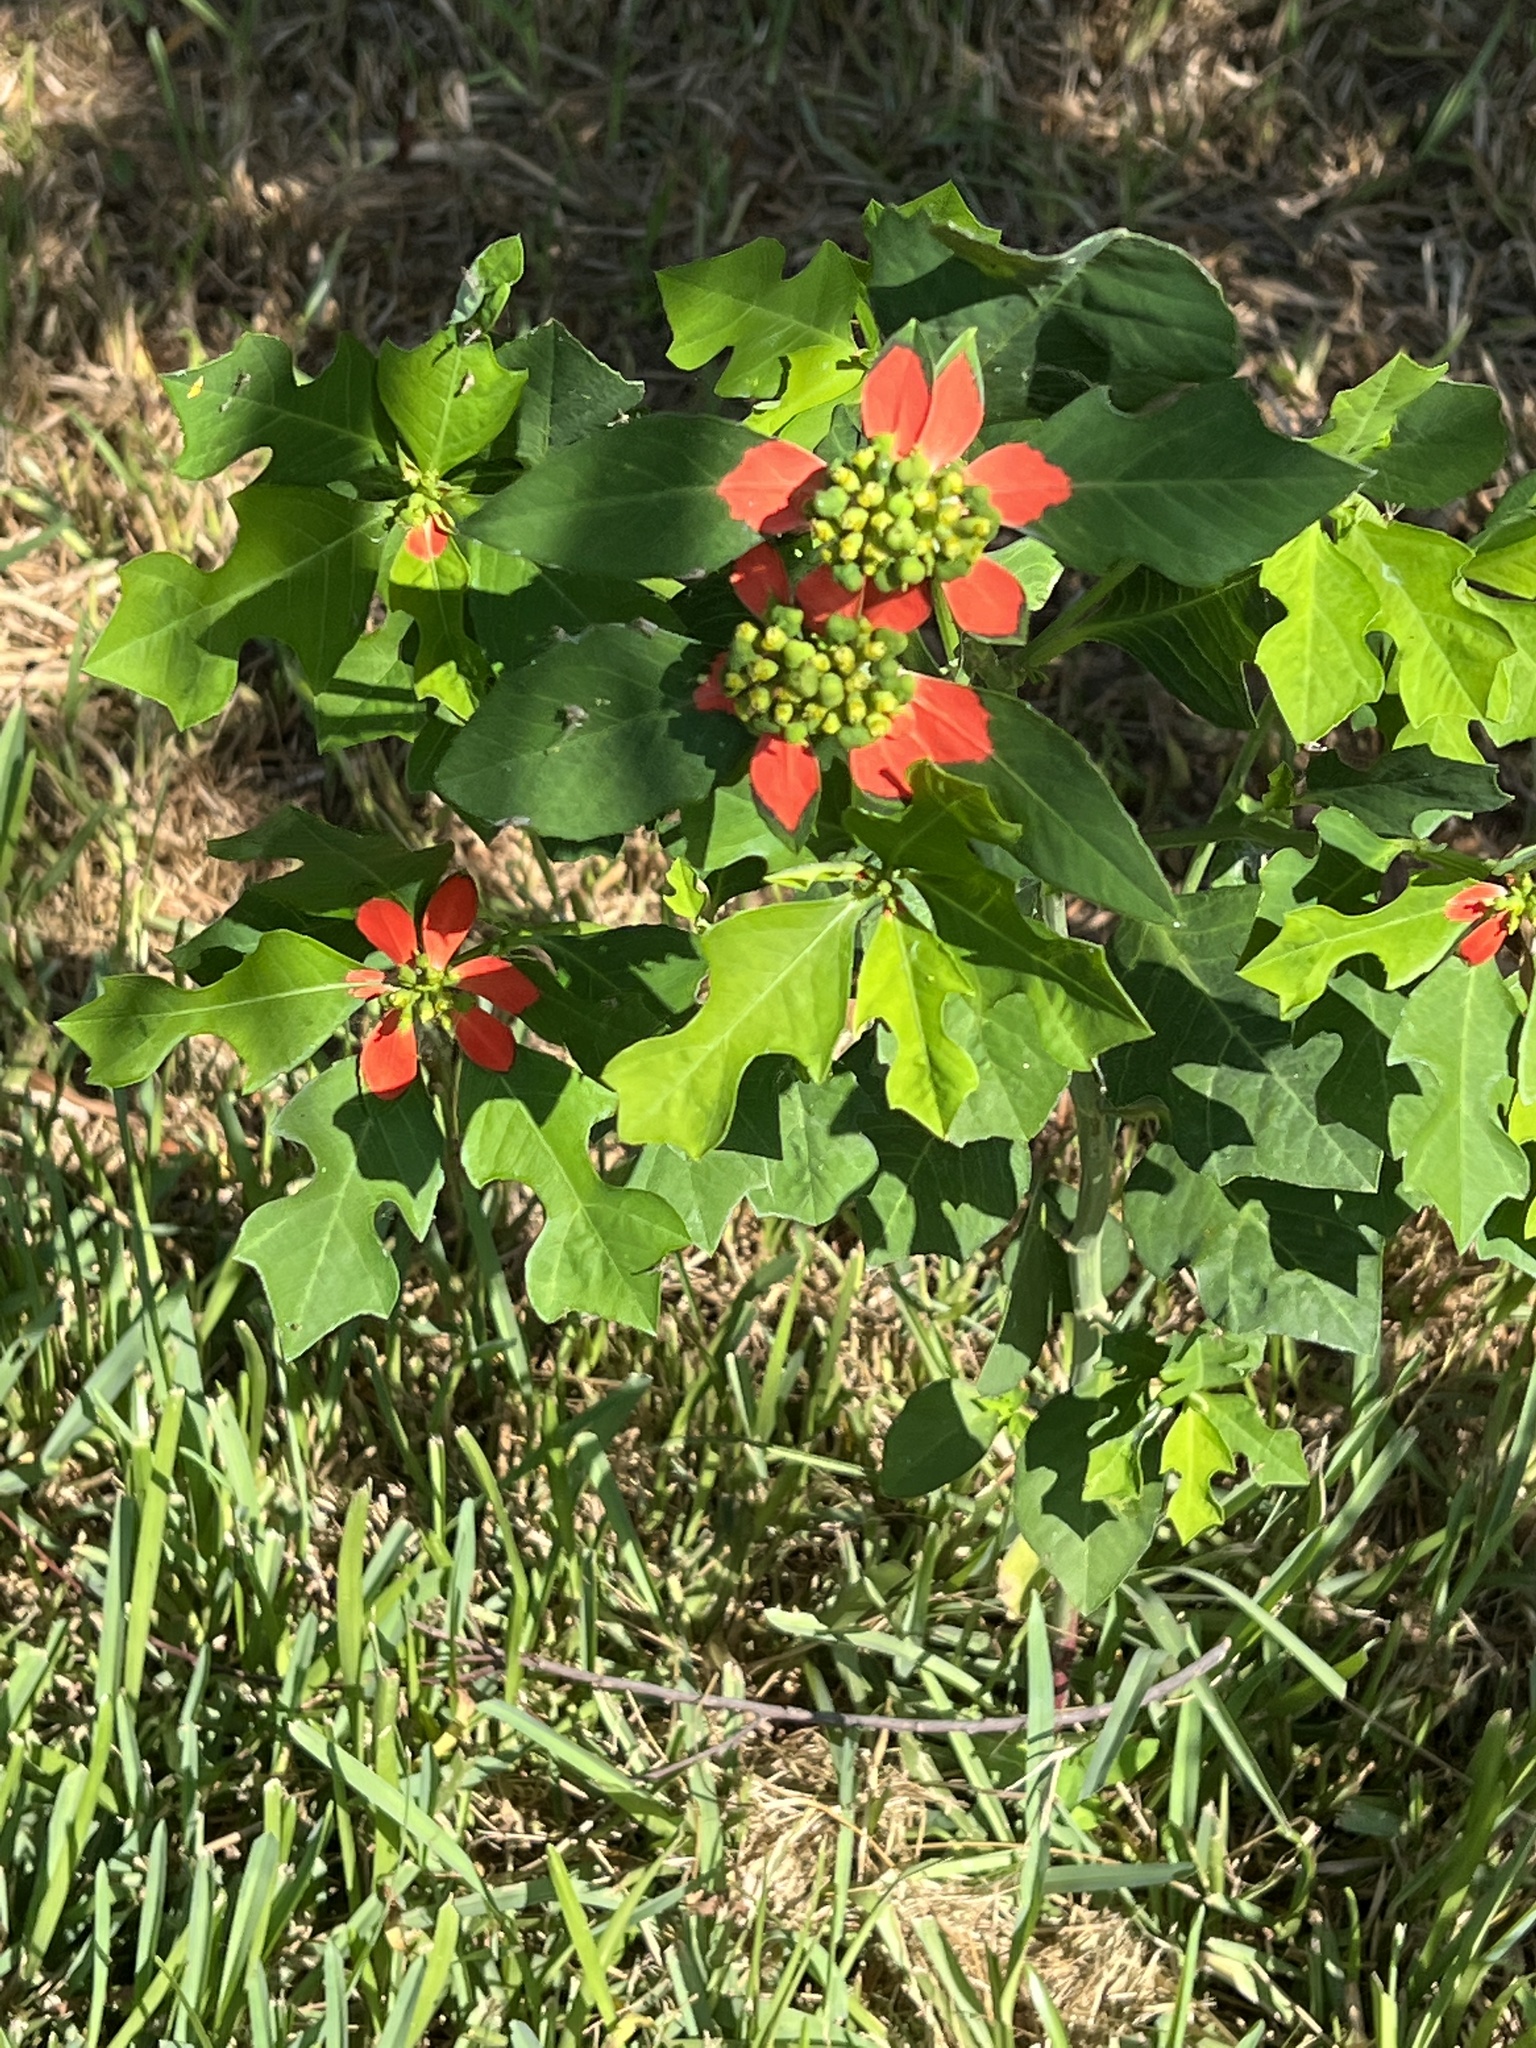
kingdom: Plantae
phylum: Tracheophyta
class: Magnoliopsida
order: Malpighiales
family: Euphorbiaceae
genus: Euphorbia
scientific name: Euphorbia heterophylla
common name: Mexican fireplant
